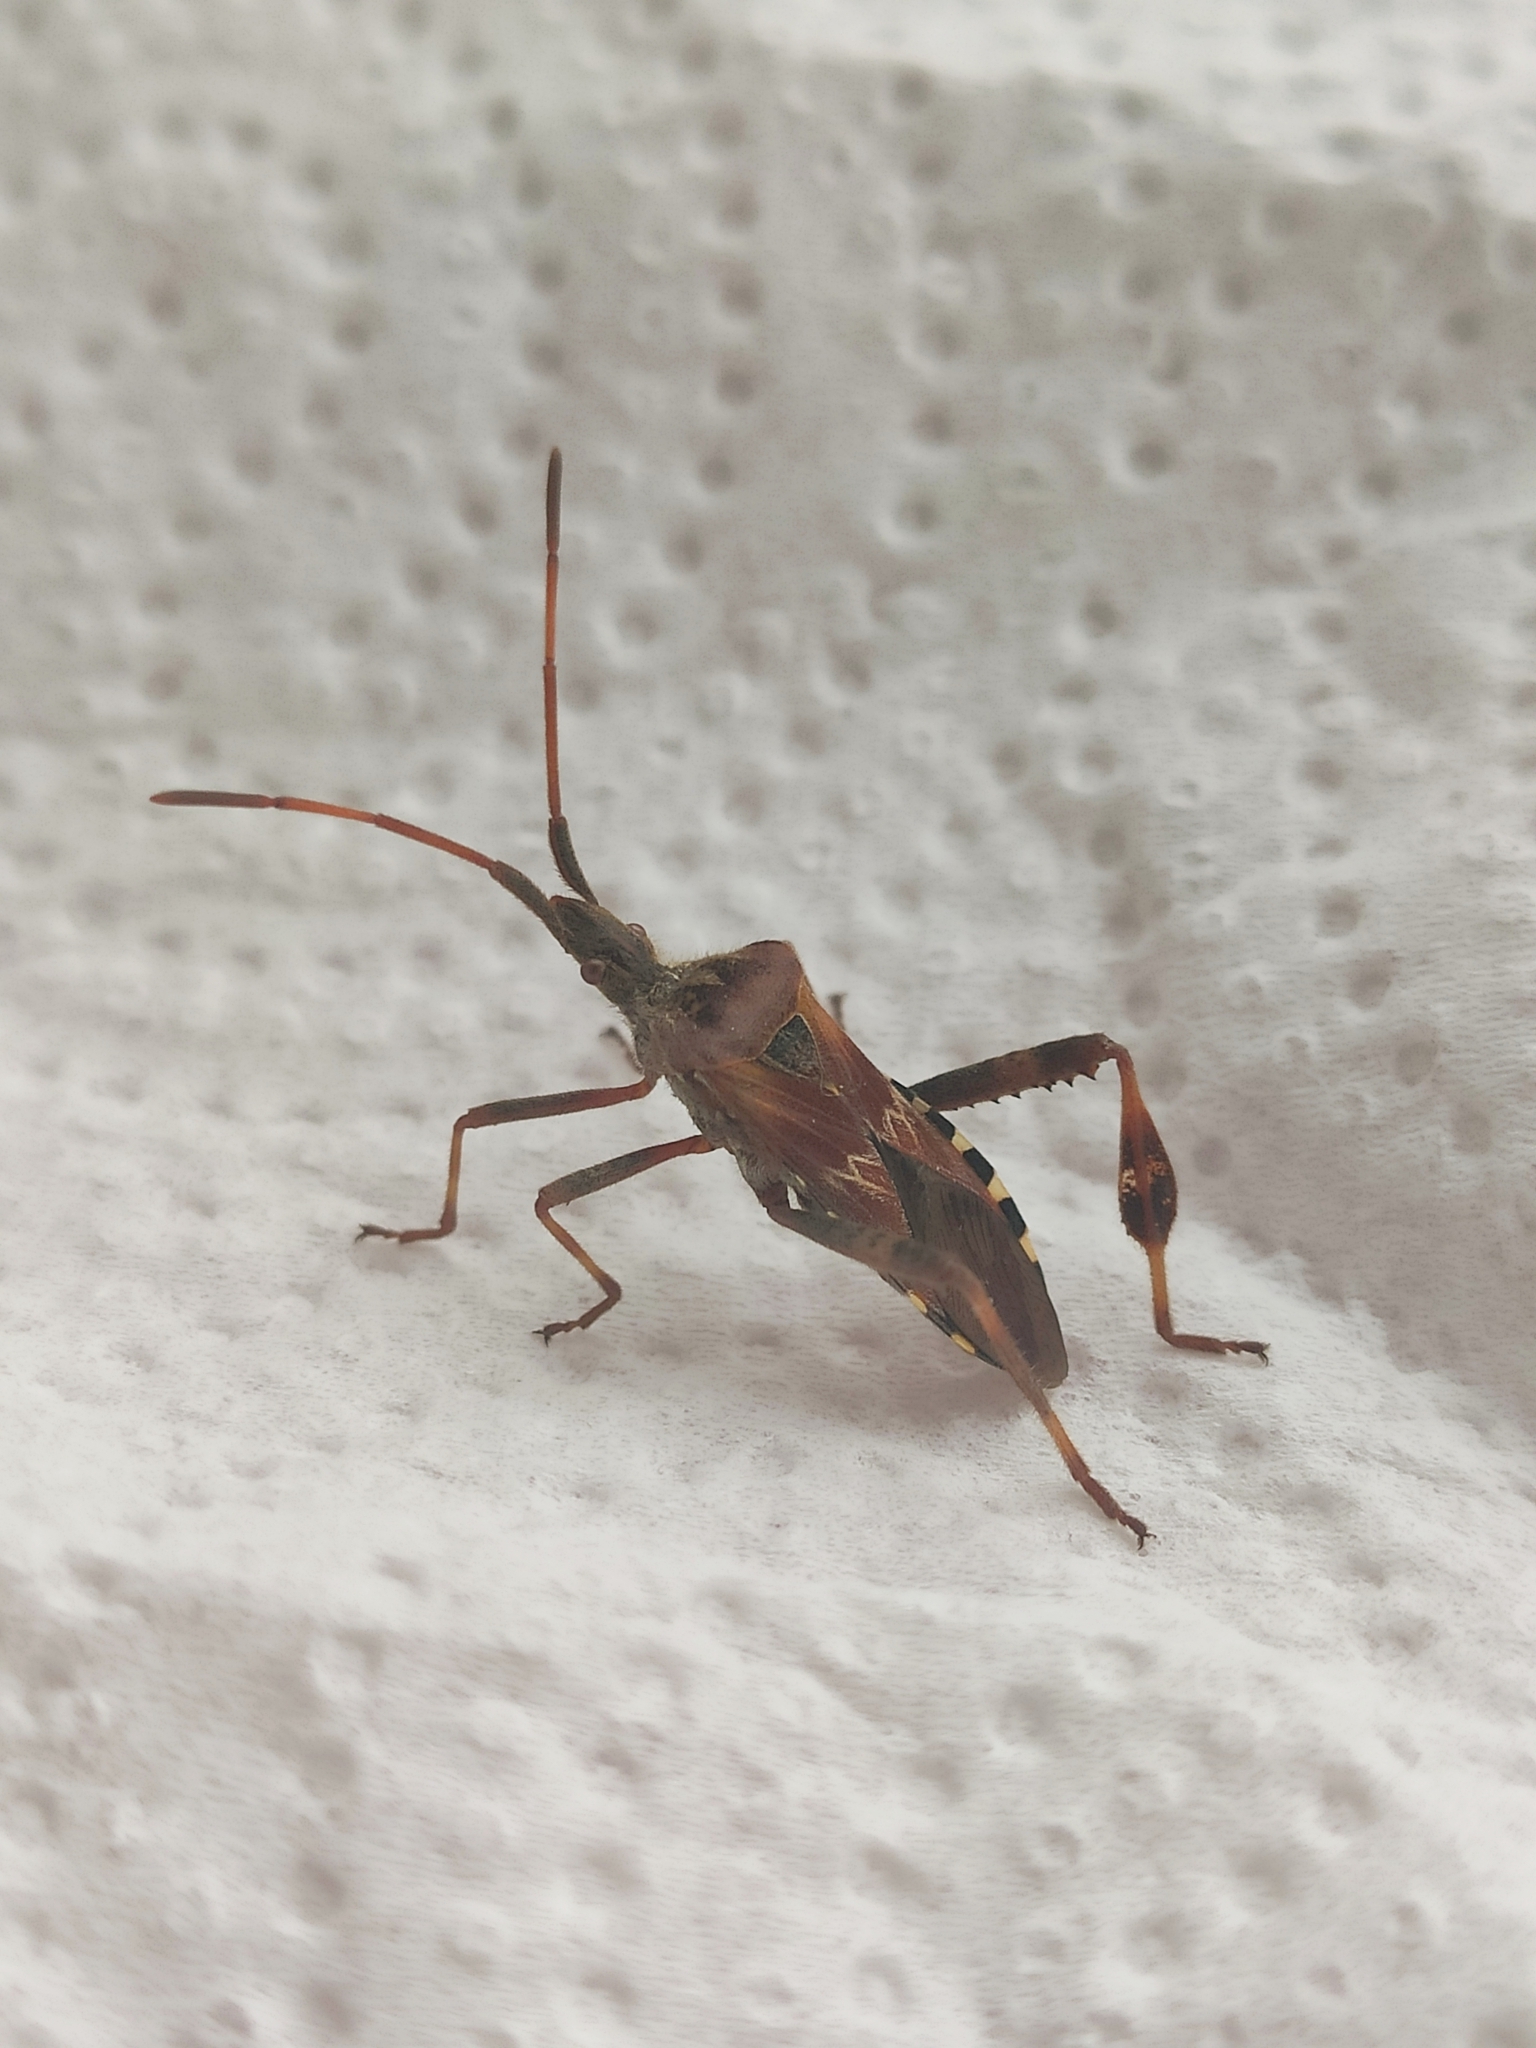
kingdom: Animalia
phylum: Arthropoda
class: Insecta
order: Hemiptera
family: Coreidae
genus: Leptoglossus
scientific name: Leptoglossus occidentalis
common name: Western conifer-seed bug
